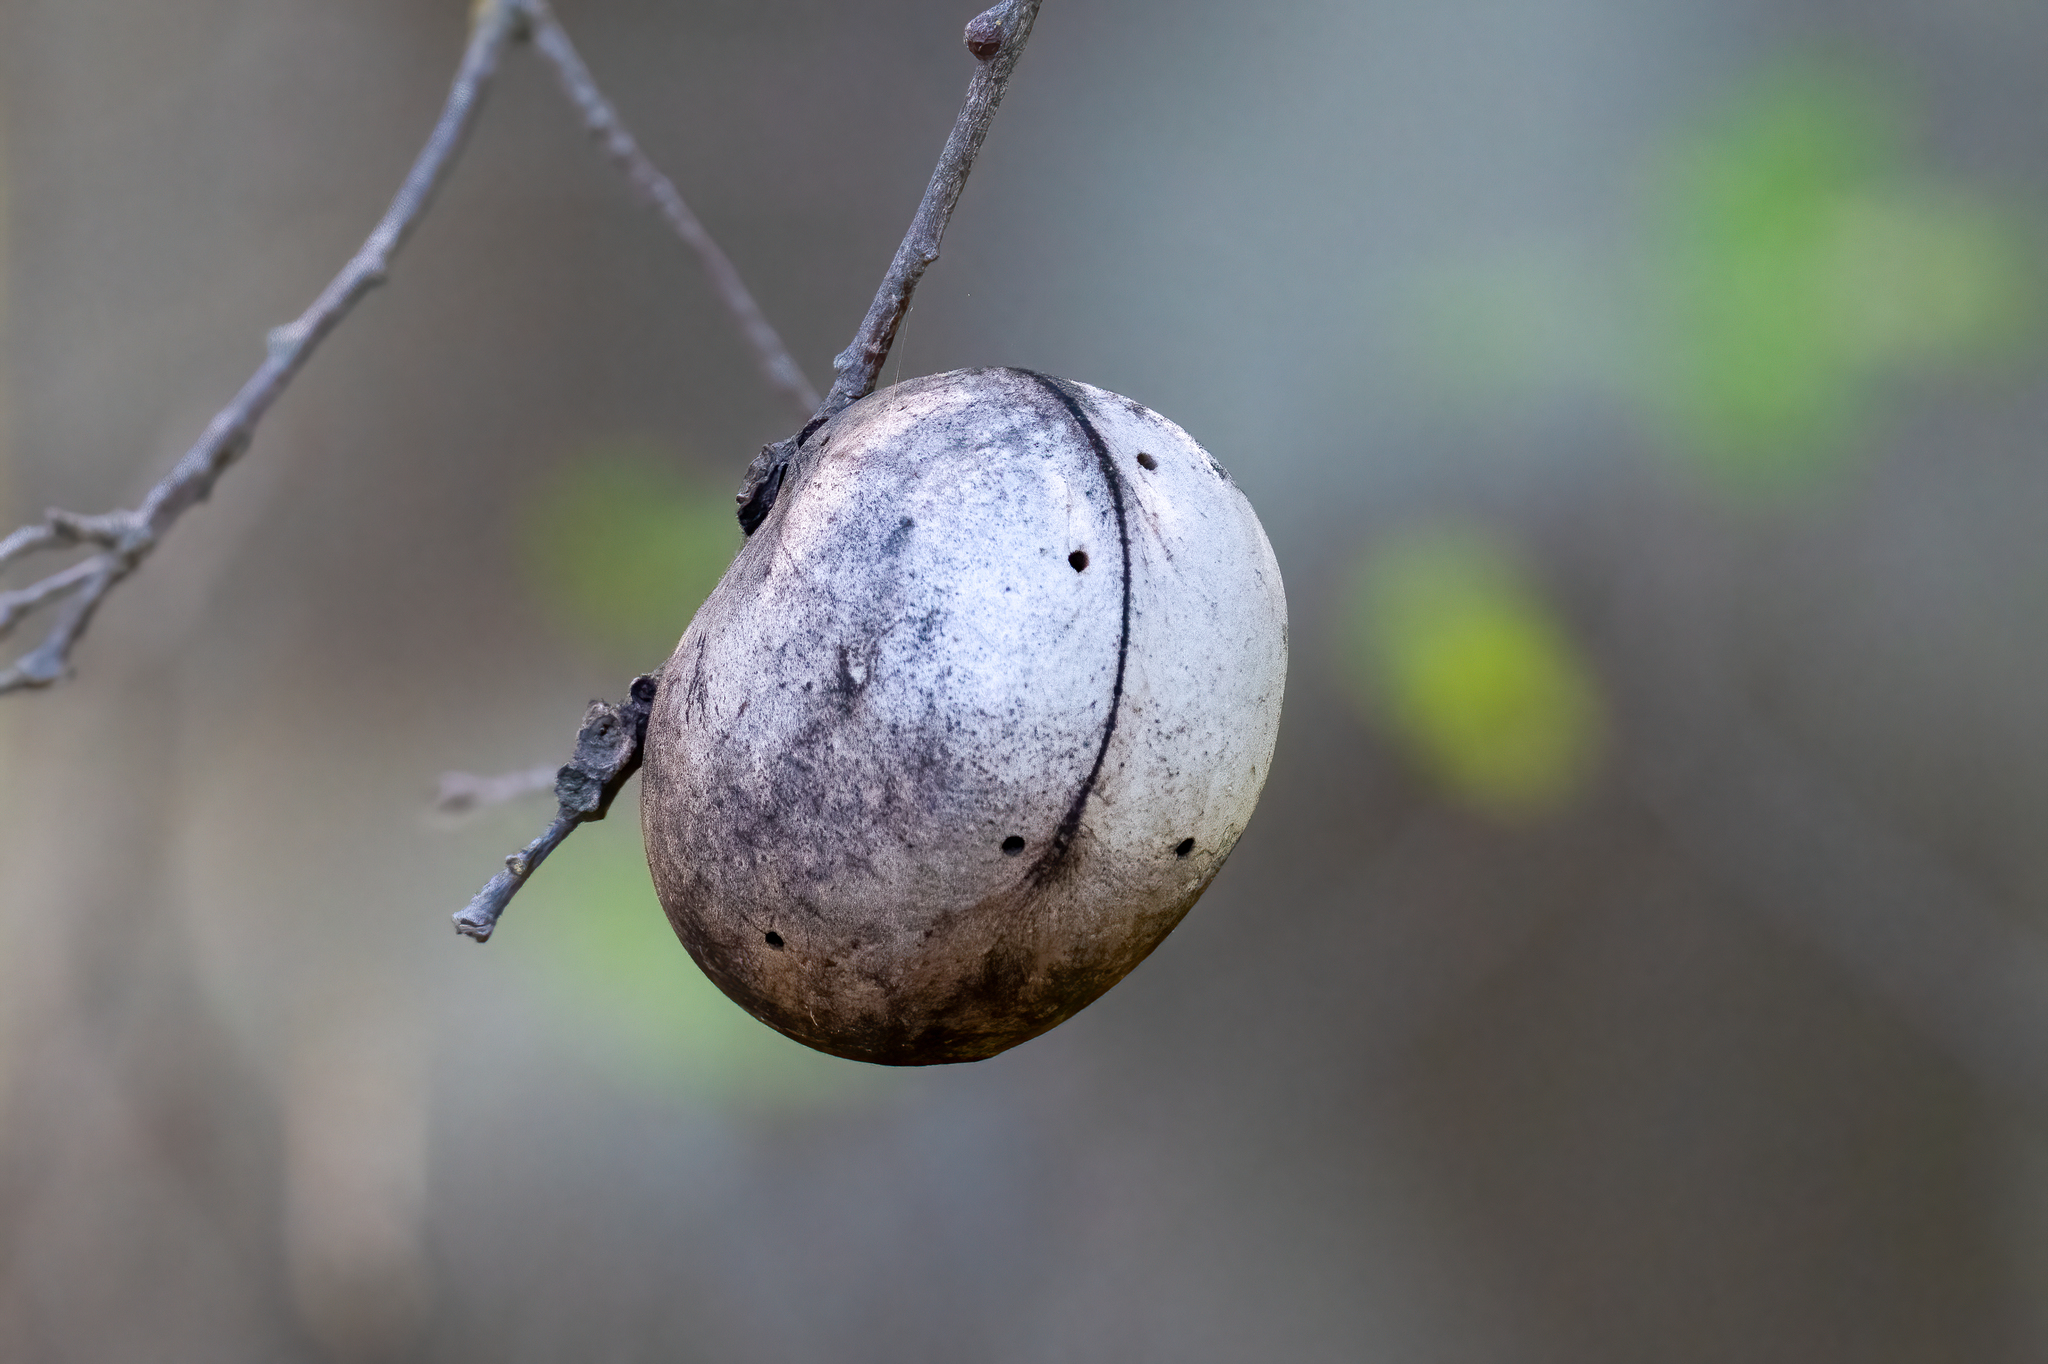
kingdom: Animalia
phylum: Arthropoda
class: Insecta
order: Hymenoptera
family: Cynipidae
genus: Andricus
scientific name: Andricus quercuscalifornicus
